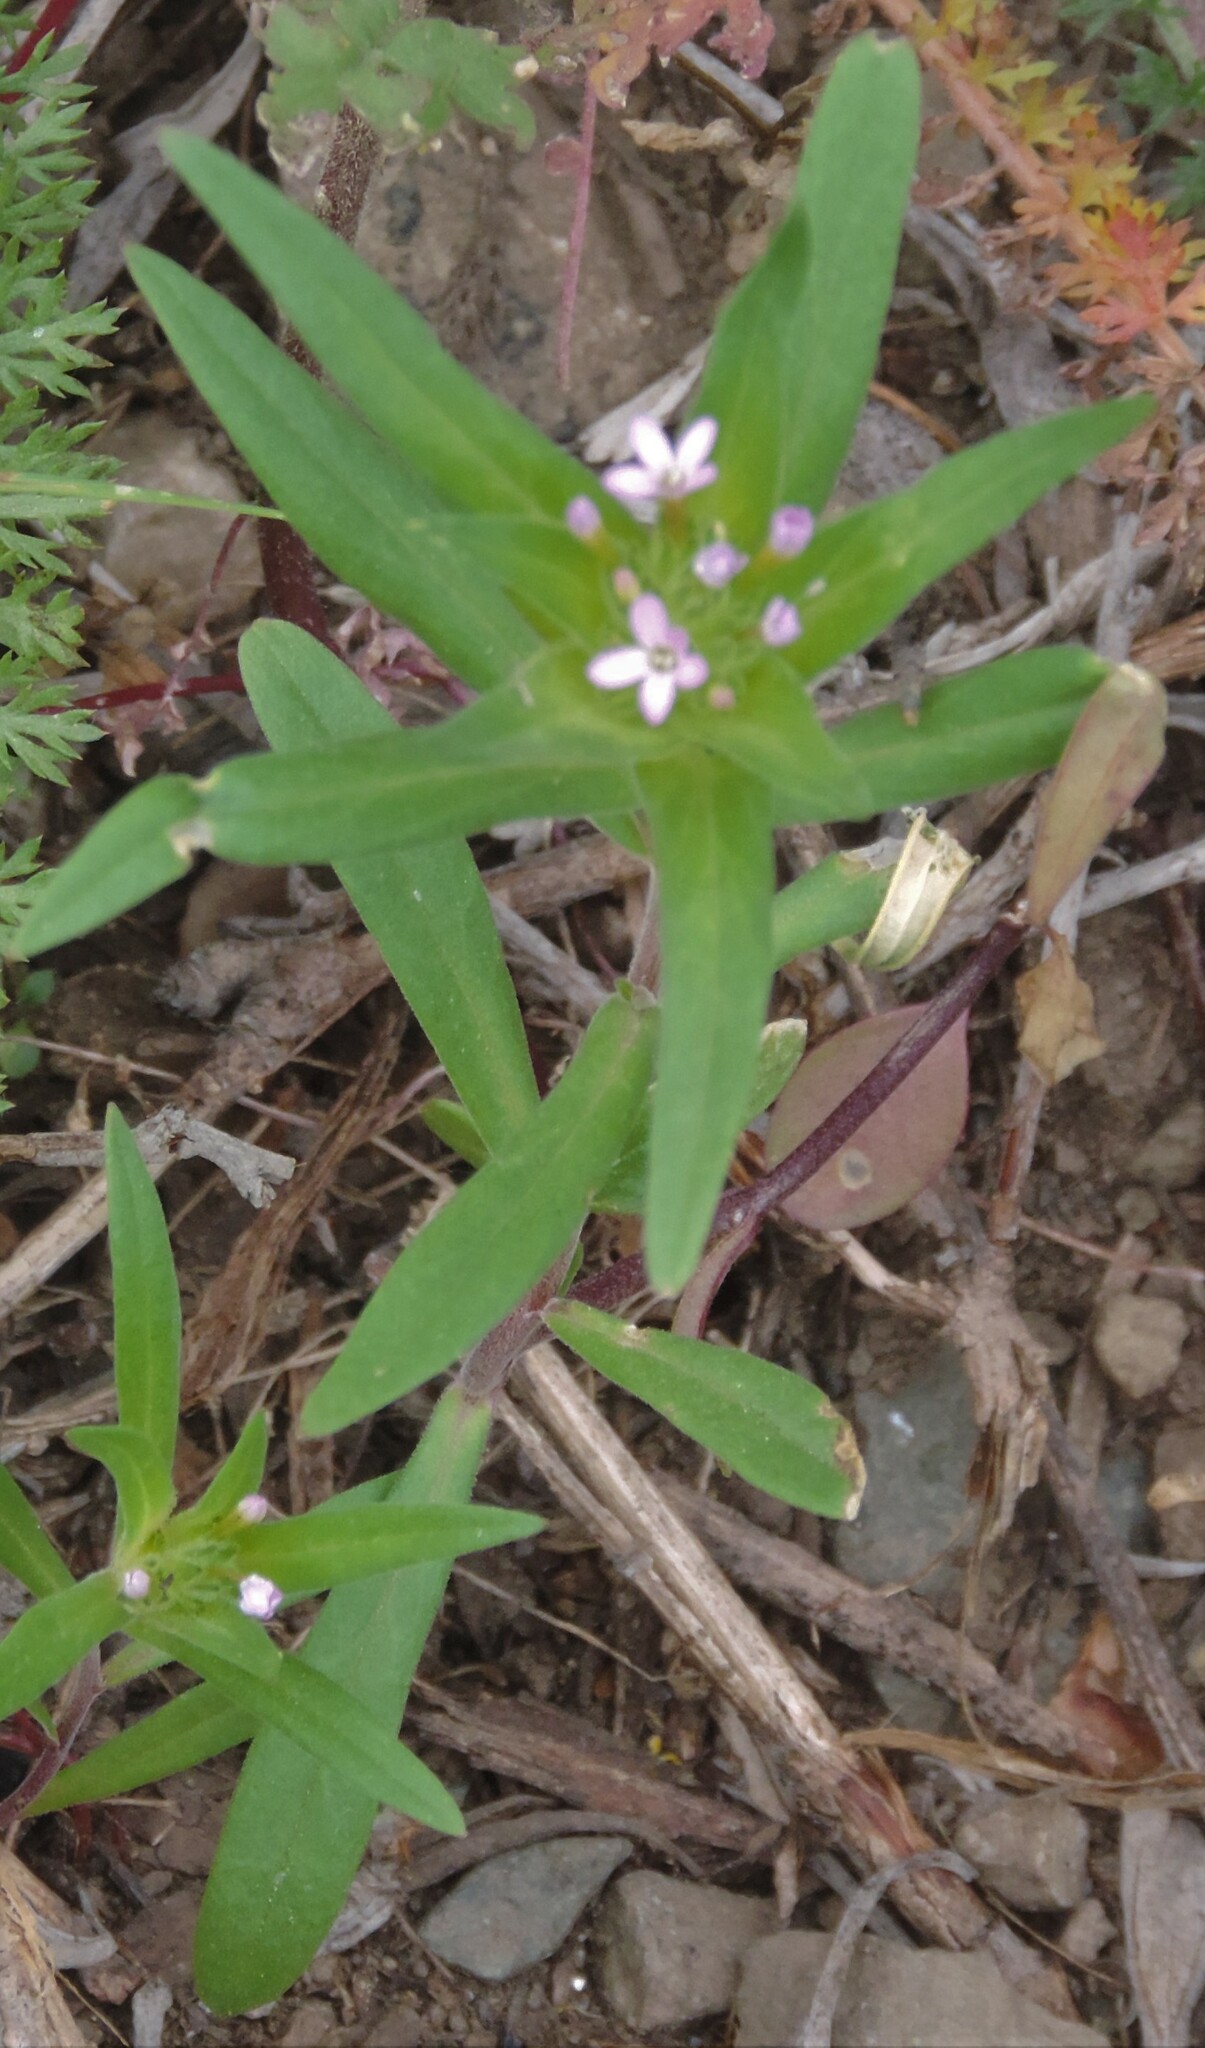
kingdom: Plantae
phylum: Tracheophyta
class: Magnoliopsida
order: Ericales
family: Polemoniaceae
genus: Collomia
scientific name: Collomia linearis
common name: Tiny trumpet
